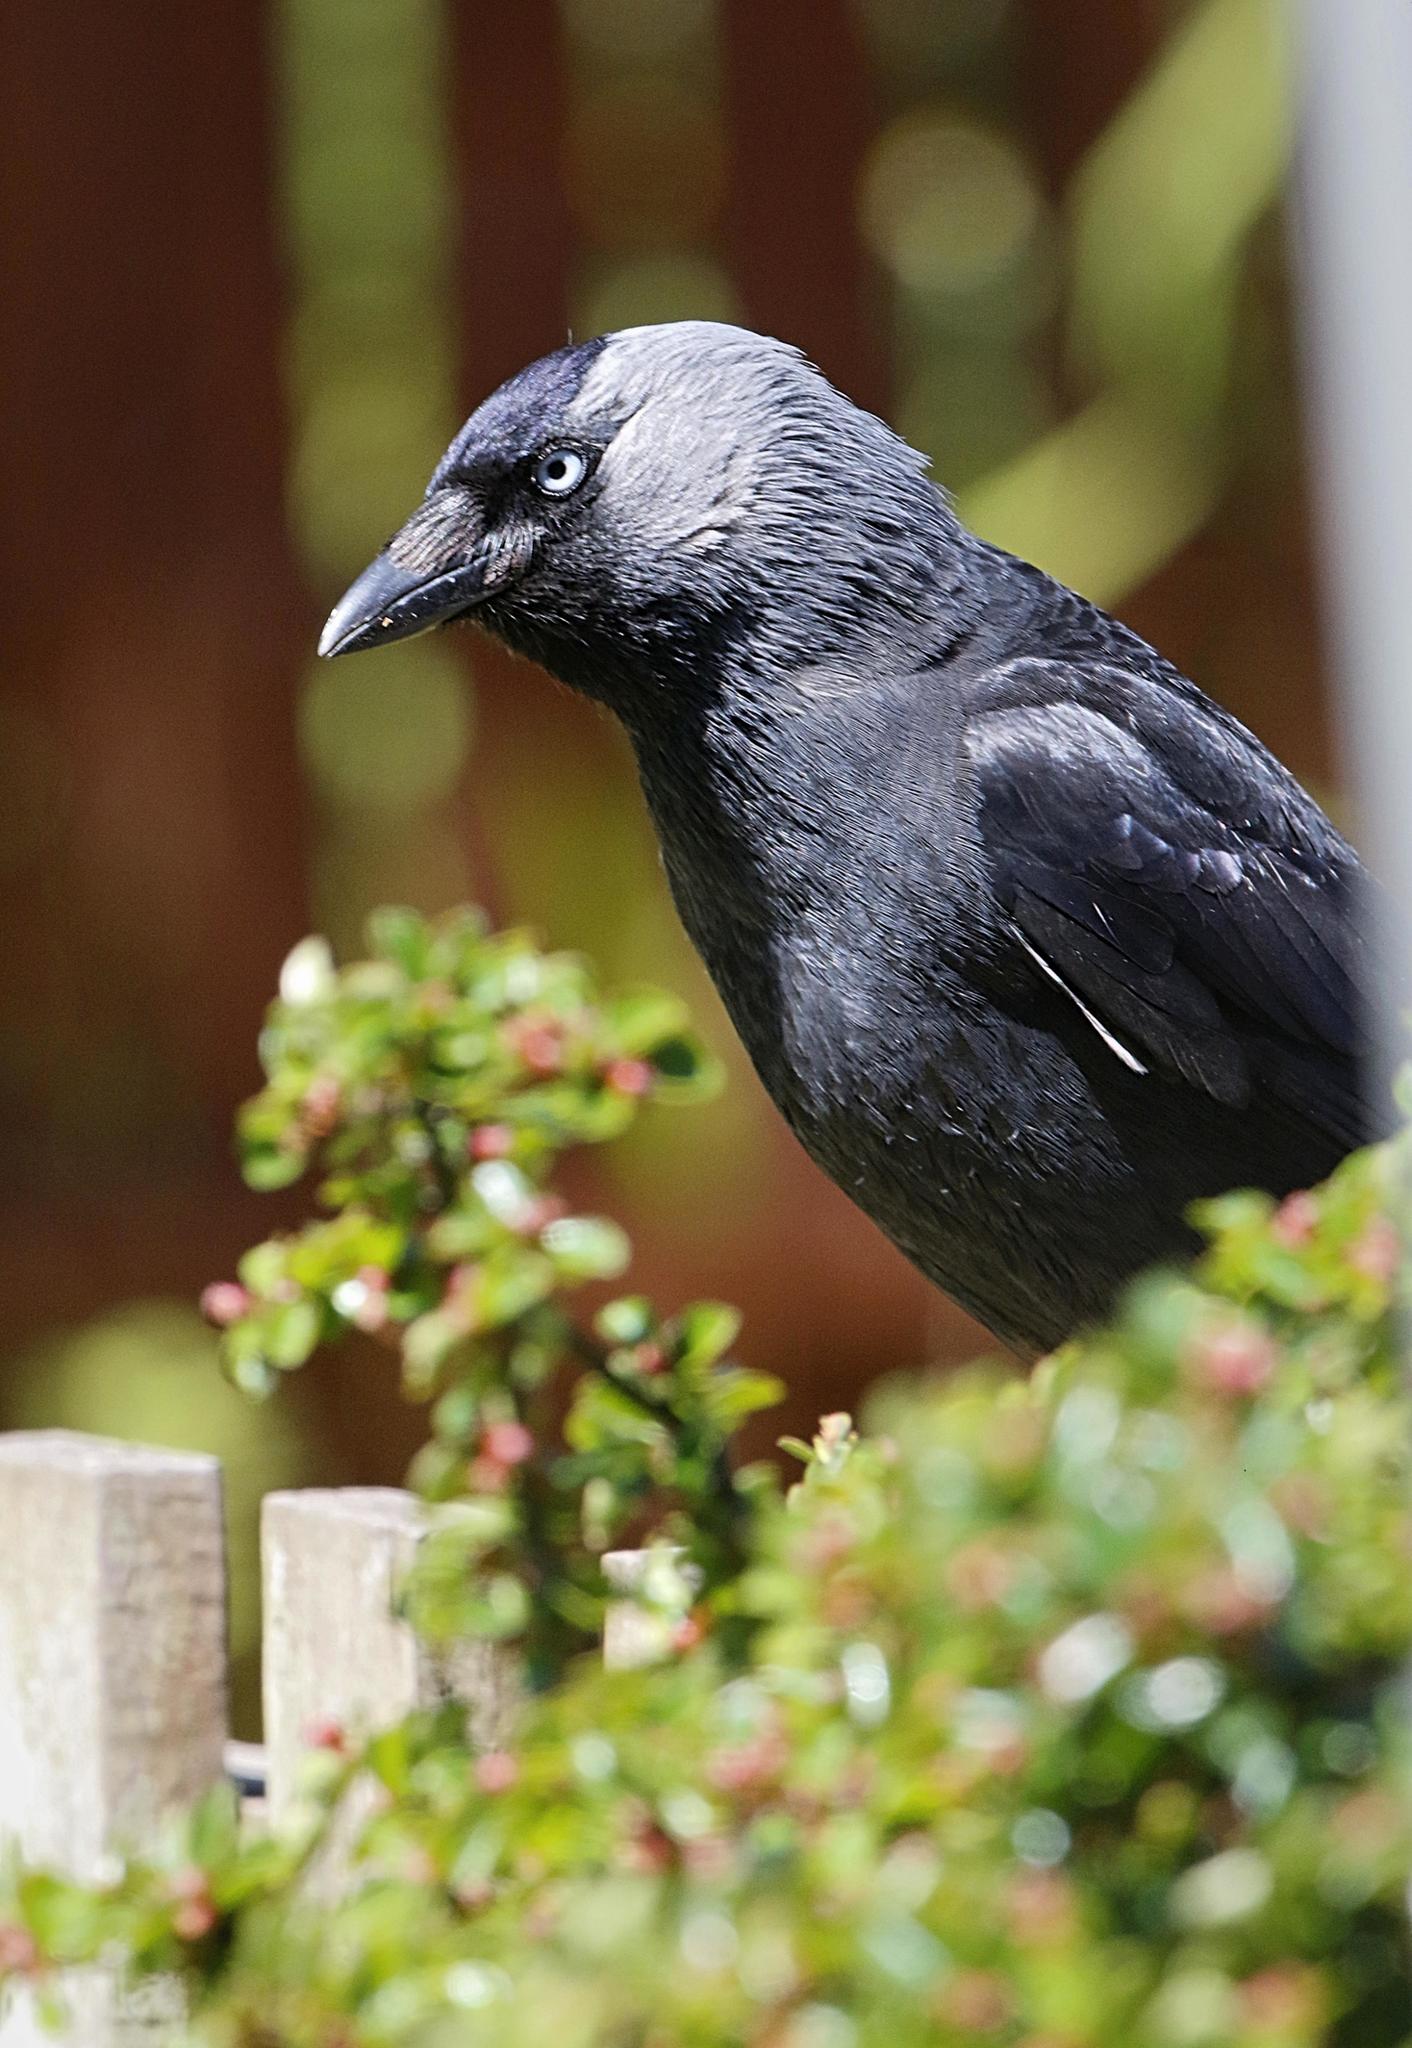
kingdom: Animalia
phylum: Chordata
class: Aves
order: Passeriformes
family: Corvidae
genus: Coloeus
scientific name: Coloeus monedula
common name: Western jackdaw
